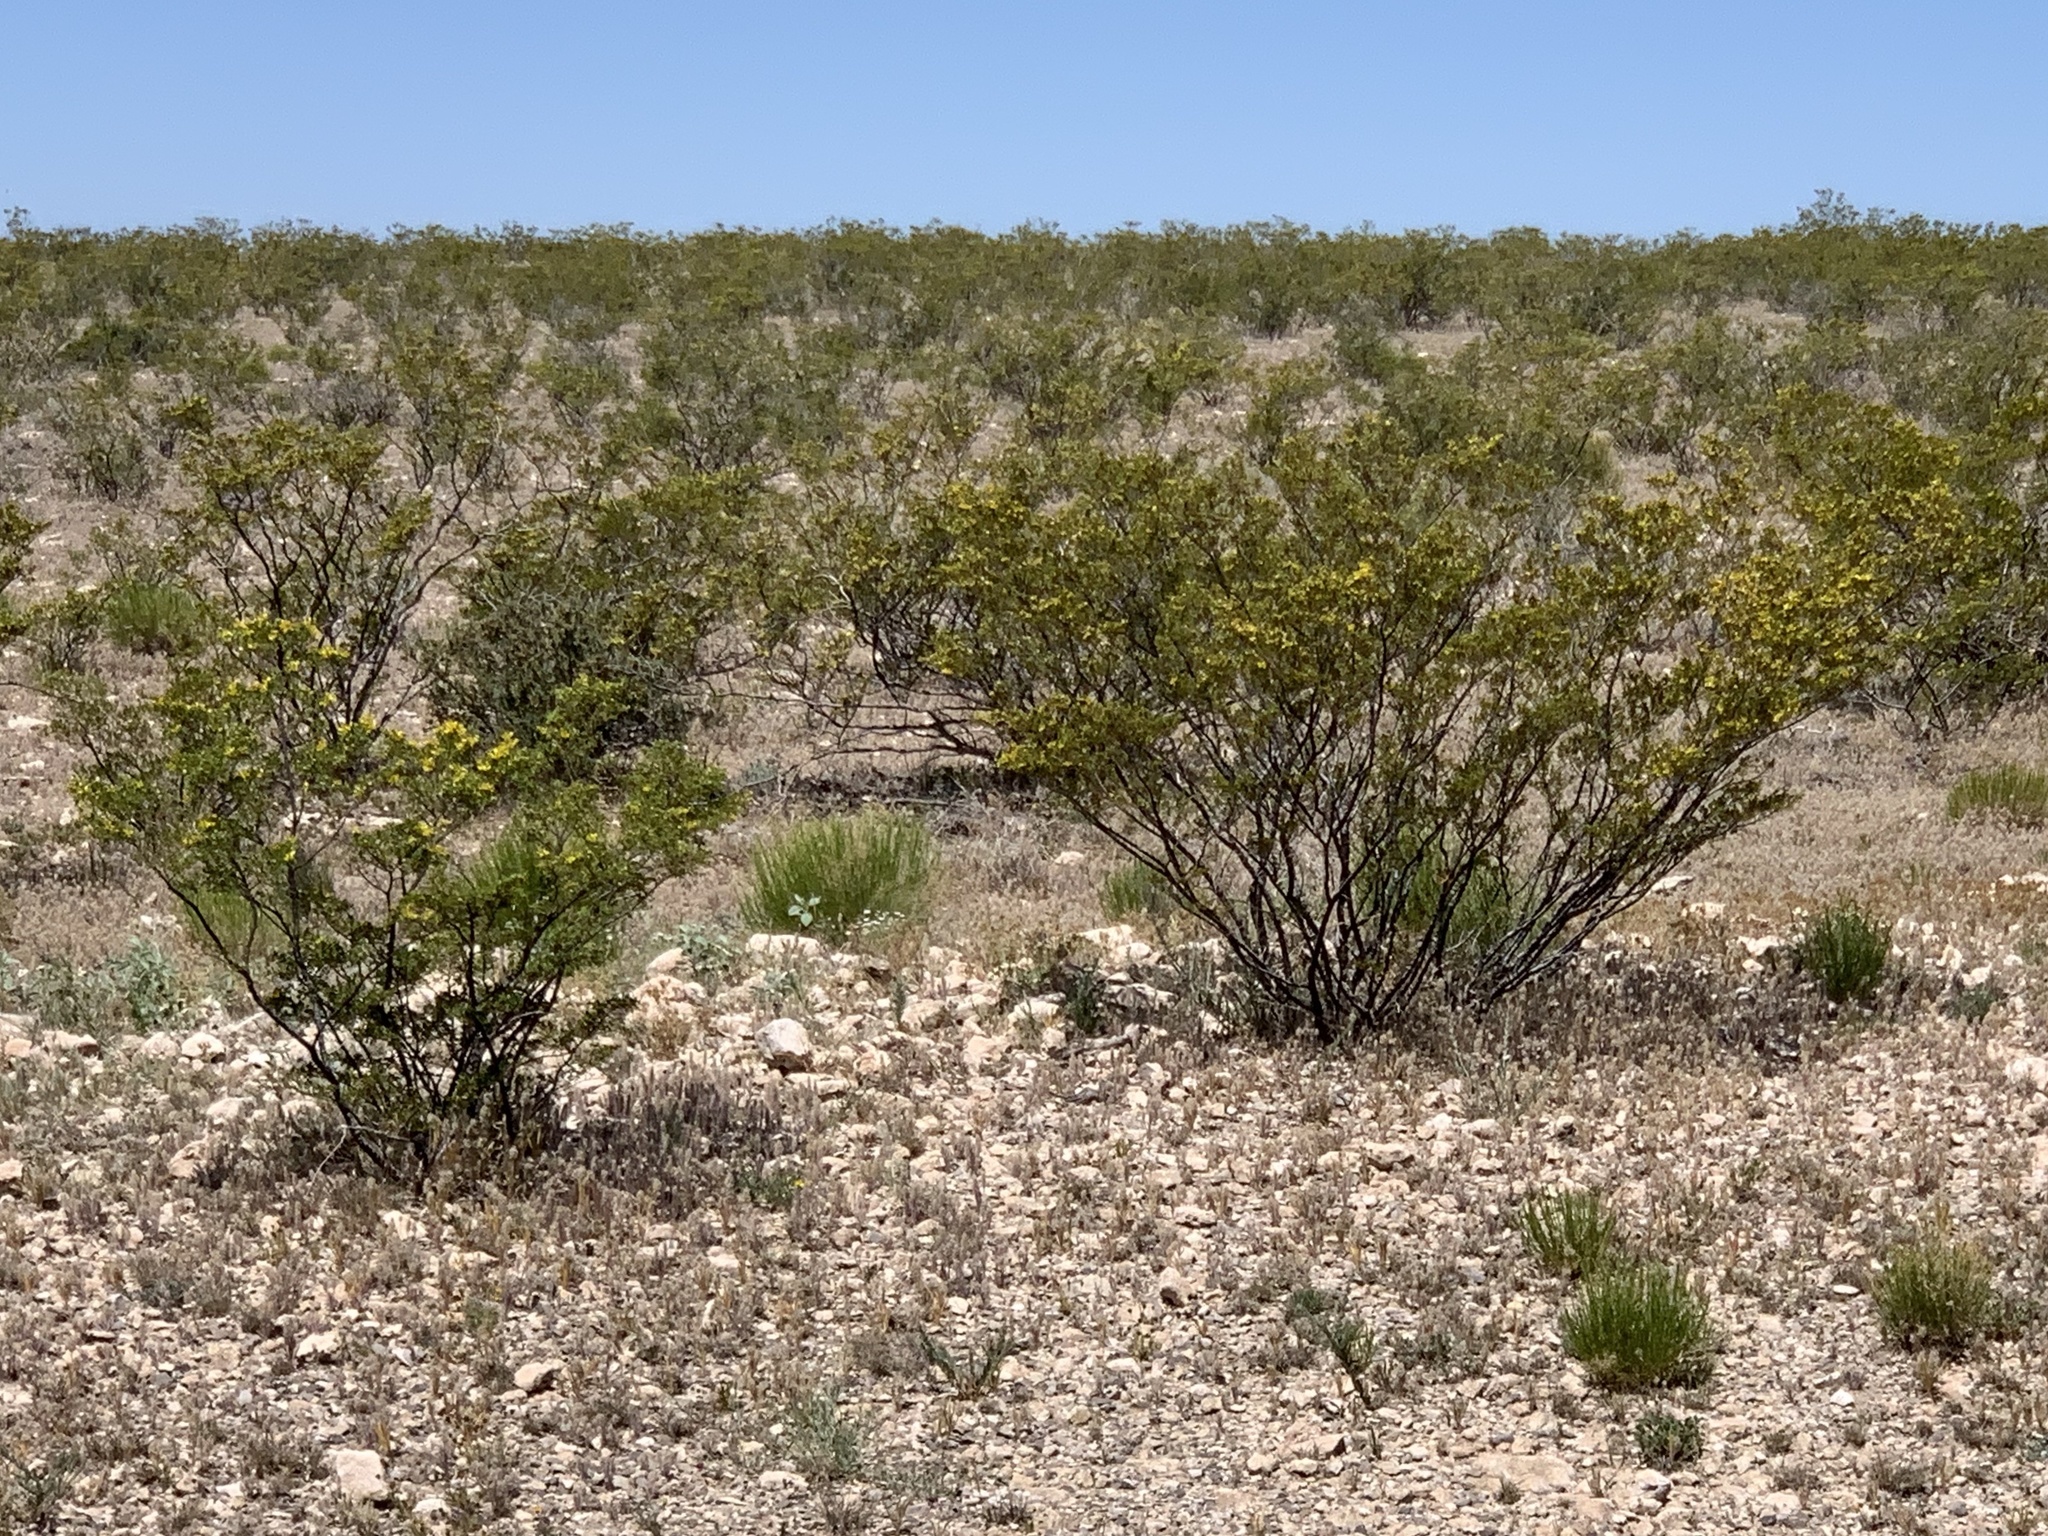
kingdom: Plantae
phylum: Tracheophyta
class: Magnoliopsida
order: Zygophyllales
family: Zygophyllaceae
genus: Larrea
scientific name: Larrea tridentata
